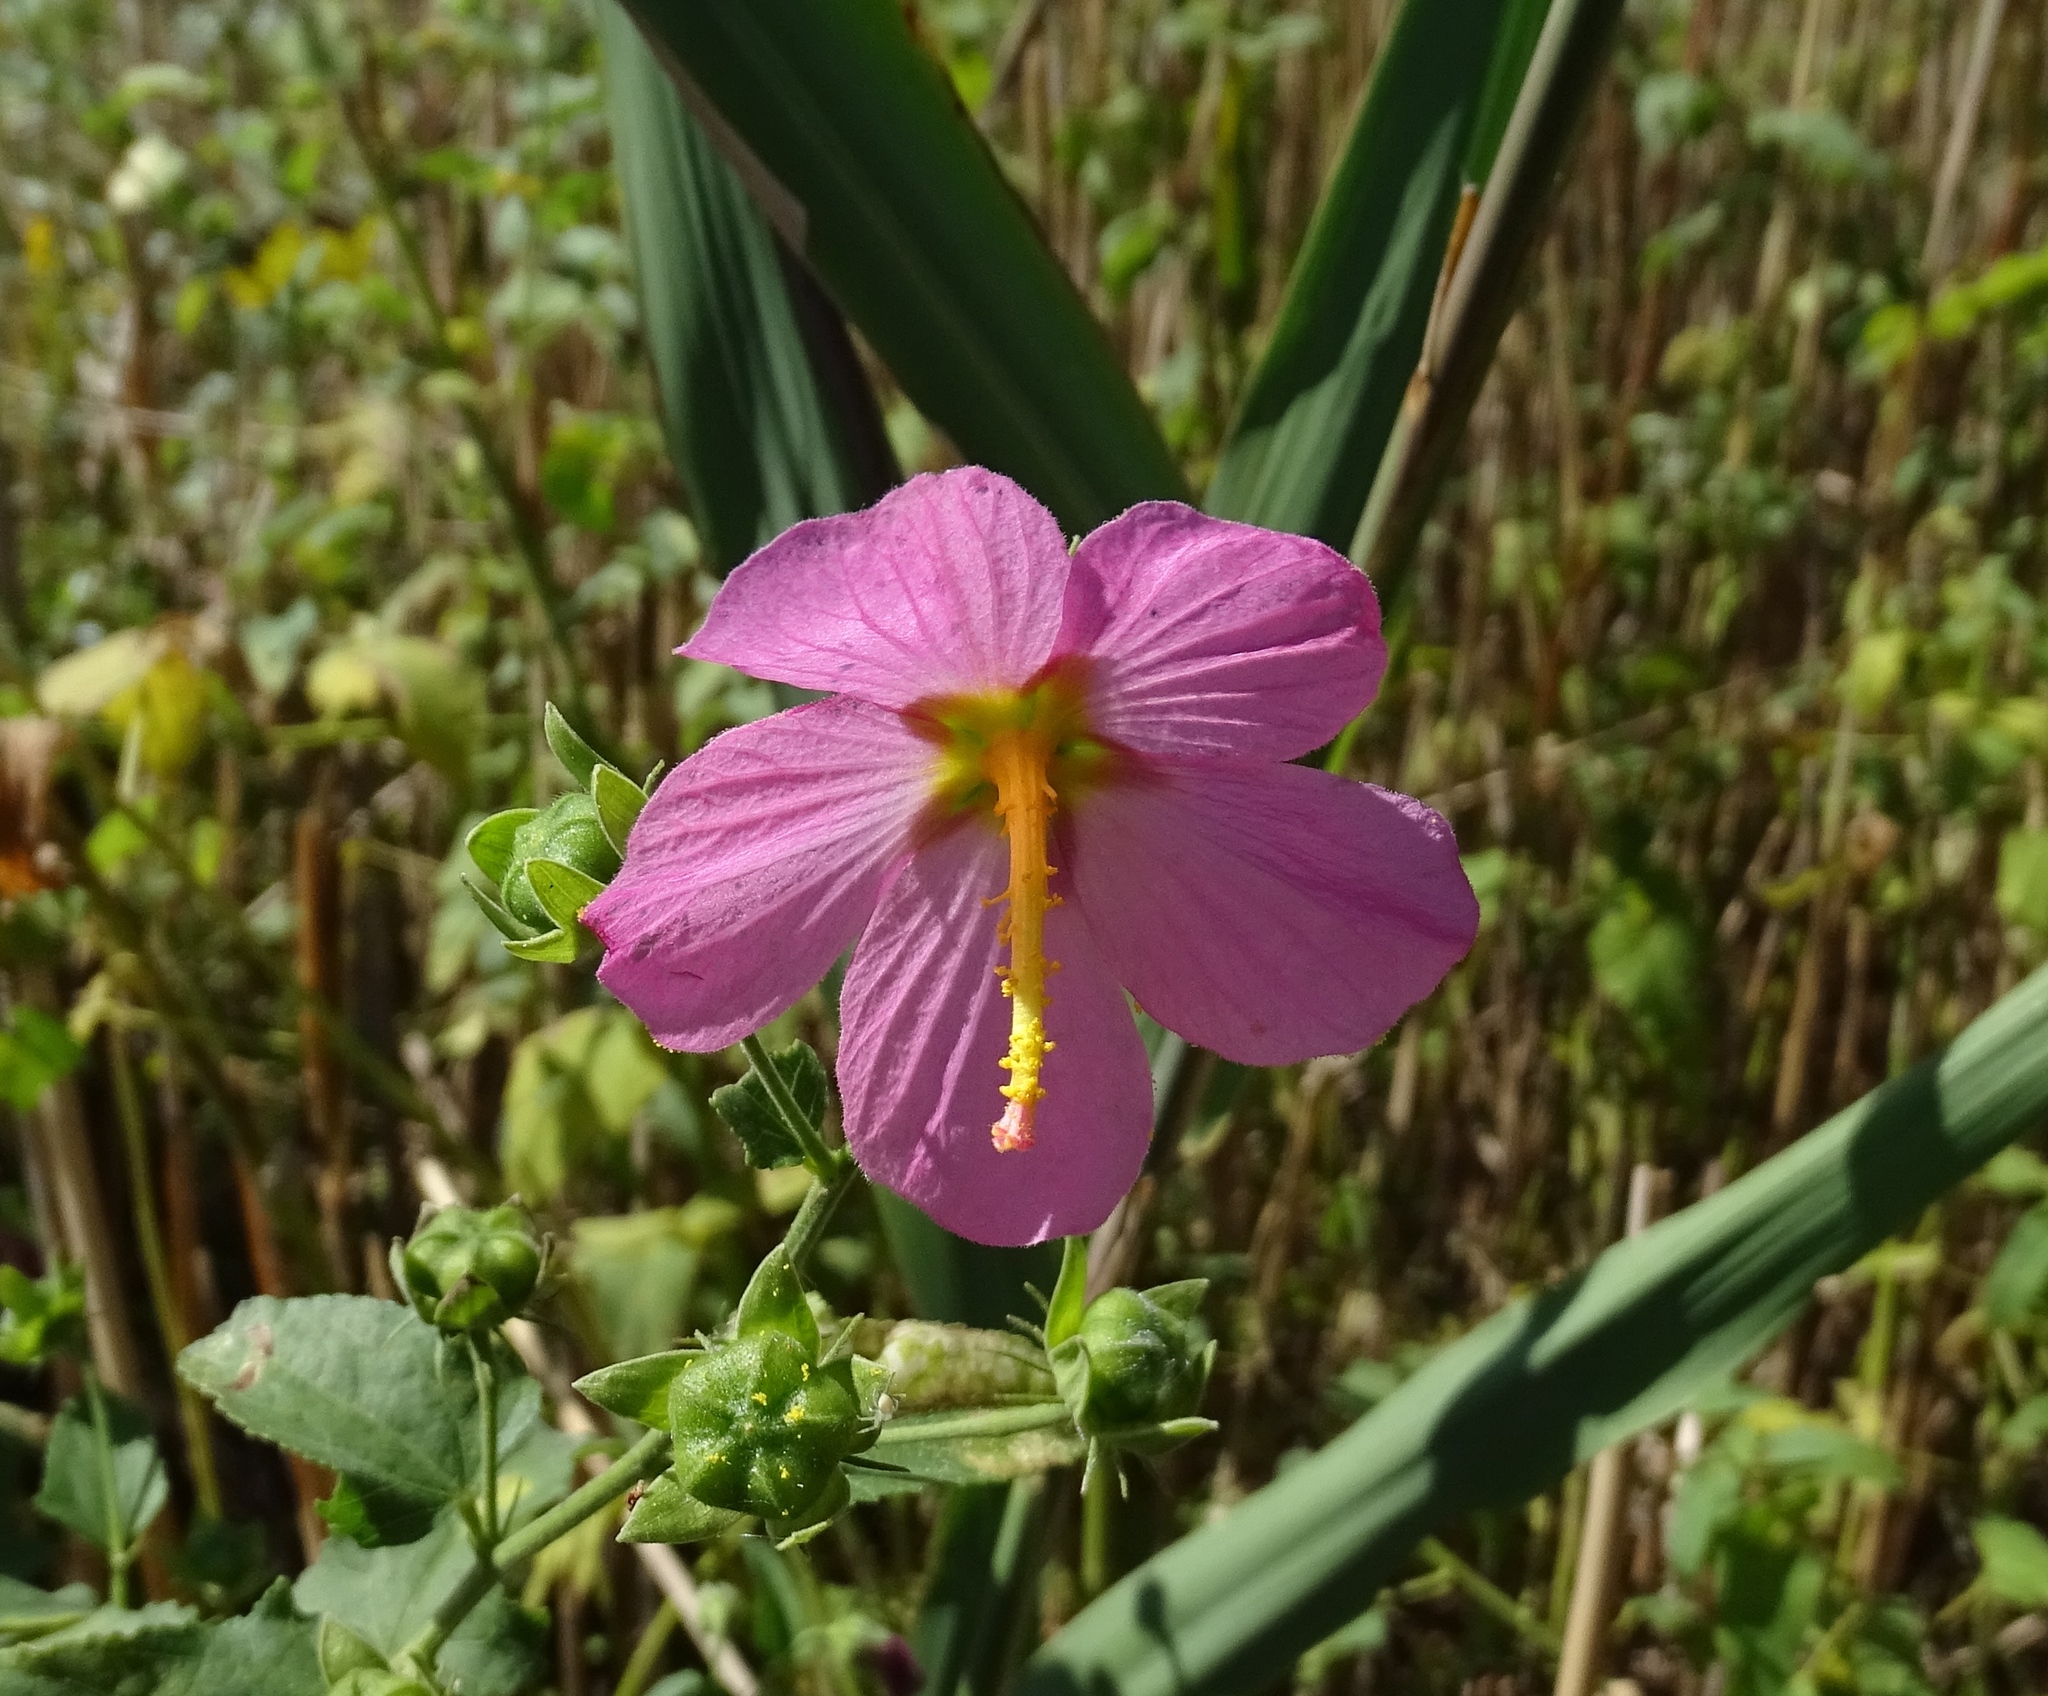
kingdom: Plantae
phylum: Tracheophyta
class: Magnoliopsida
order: Malvales
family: Malvaceae
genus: Kosteletzkya
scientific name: Kosteletzkya pentacarpos
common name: Virginia saltmarsh mallow
